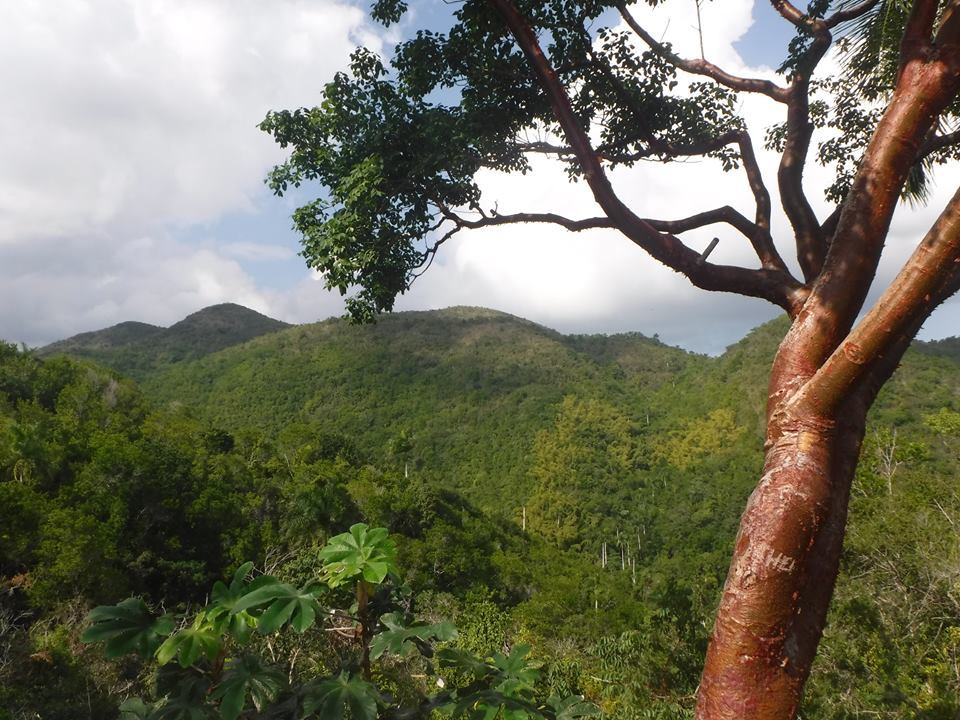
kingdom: Plantae
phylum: Tracheophyta
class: Magnoliopsida
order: Sapindales
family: Burseraceae
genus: Bursera
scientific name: Bursera simaruba
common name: Turpentine tree
